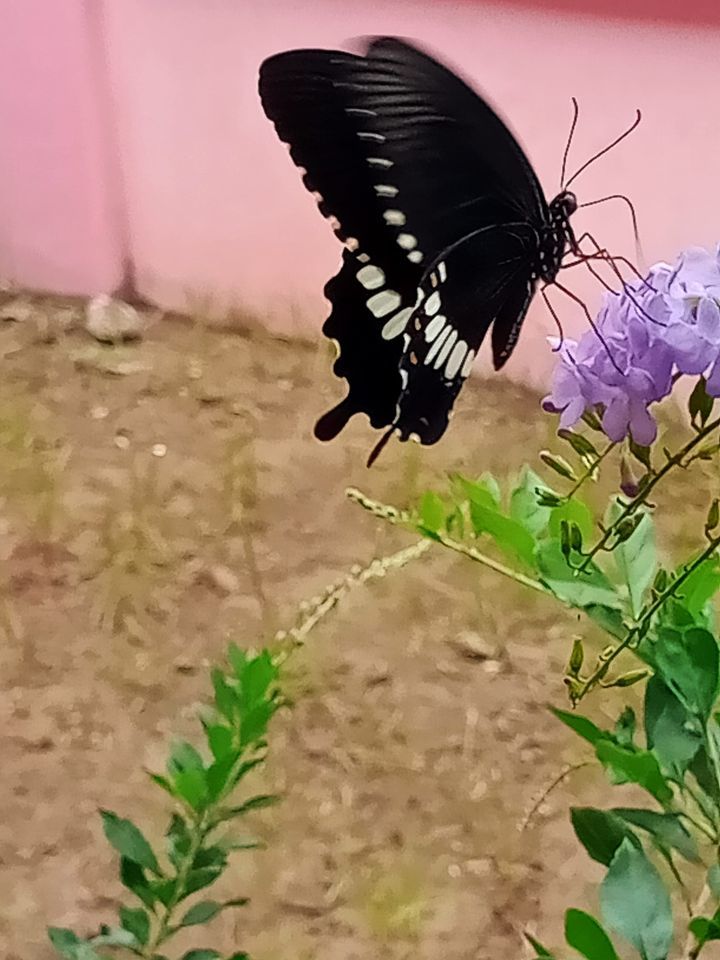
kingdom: Animalia
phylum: Arthropoda
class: Insecta
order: Lepidoptera
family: Papilionidae
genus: Papilio
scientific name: Papilio polytes
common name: Common mormon
